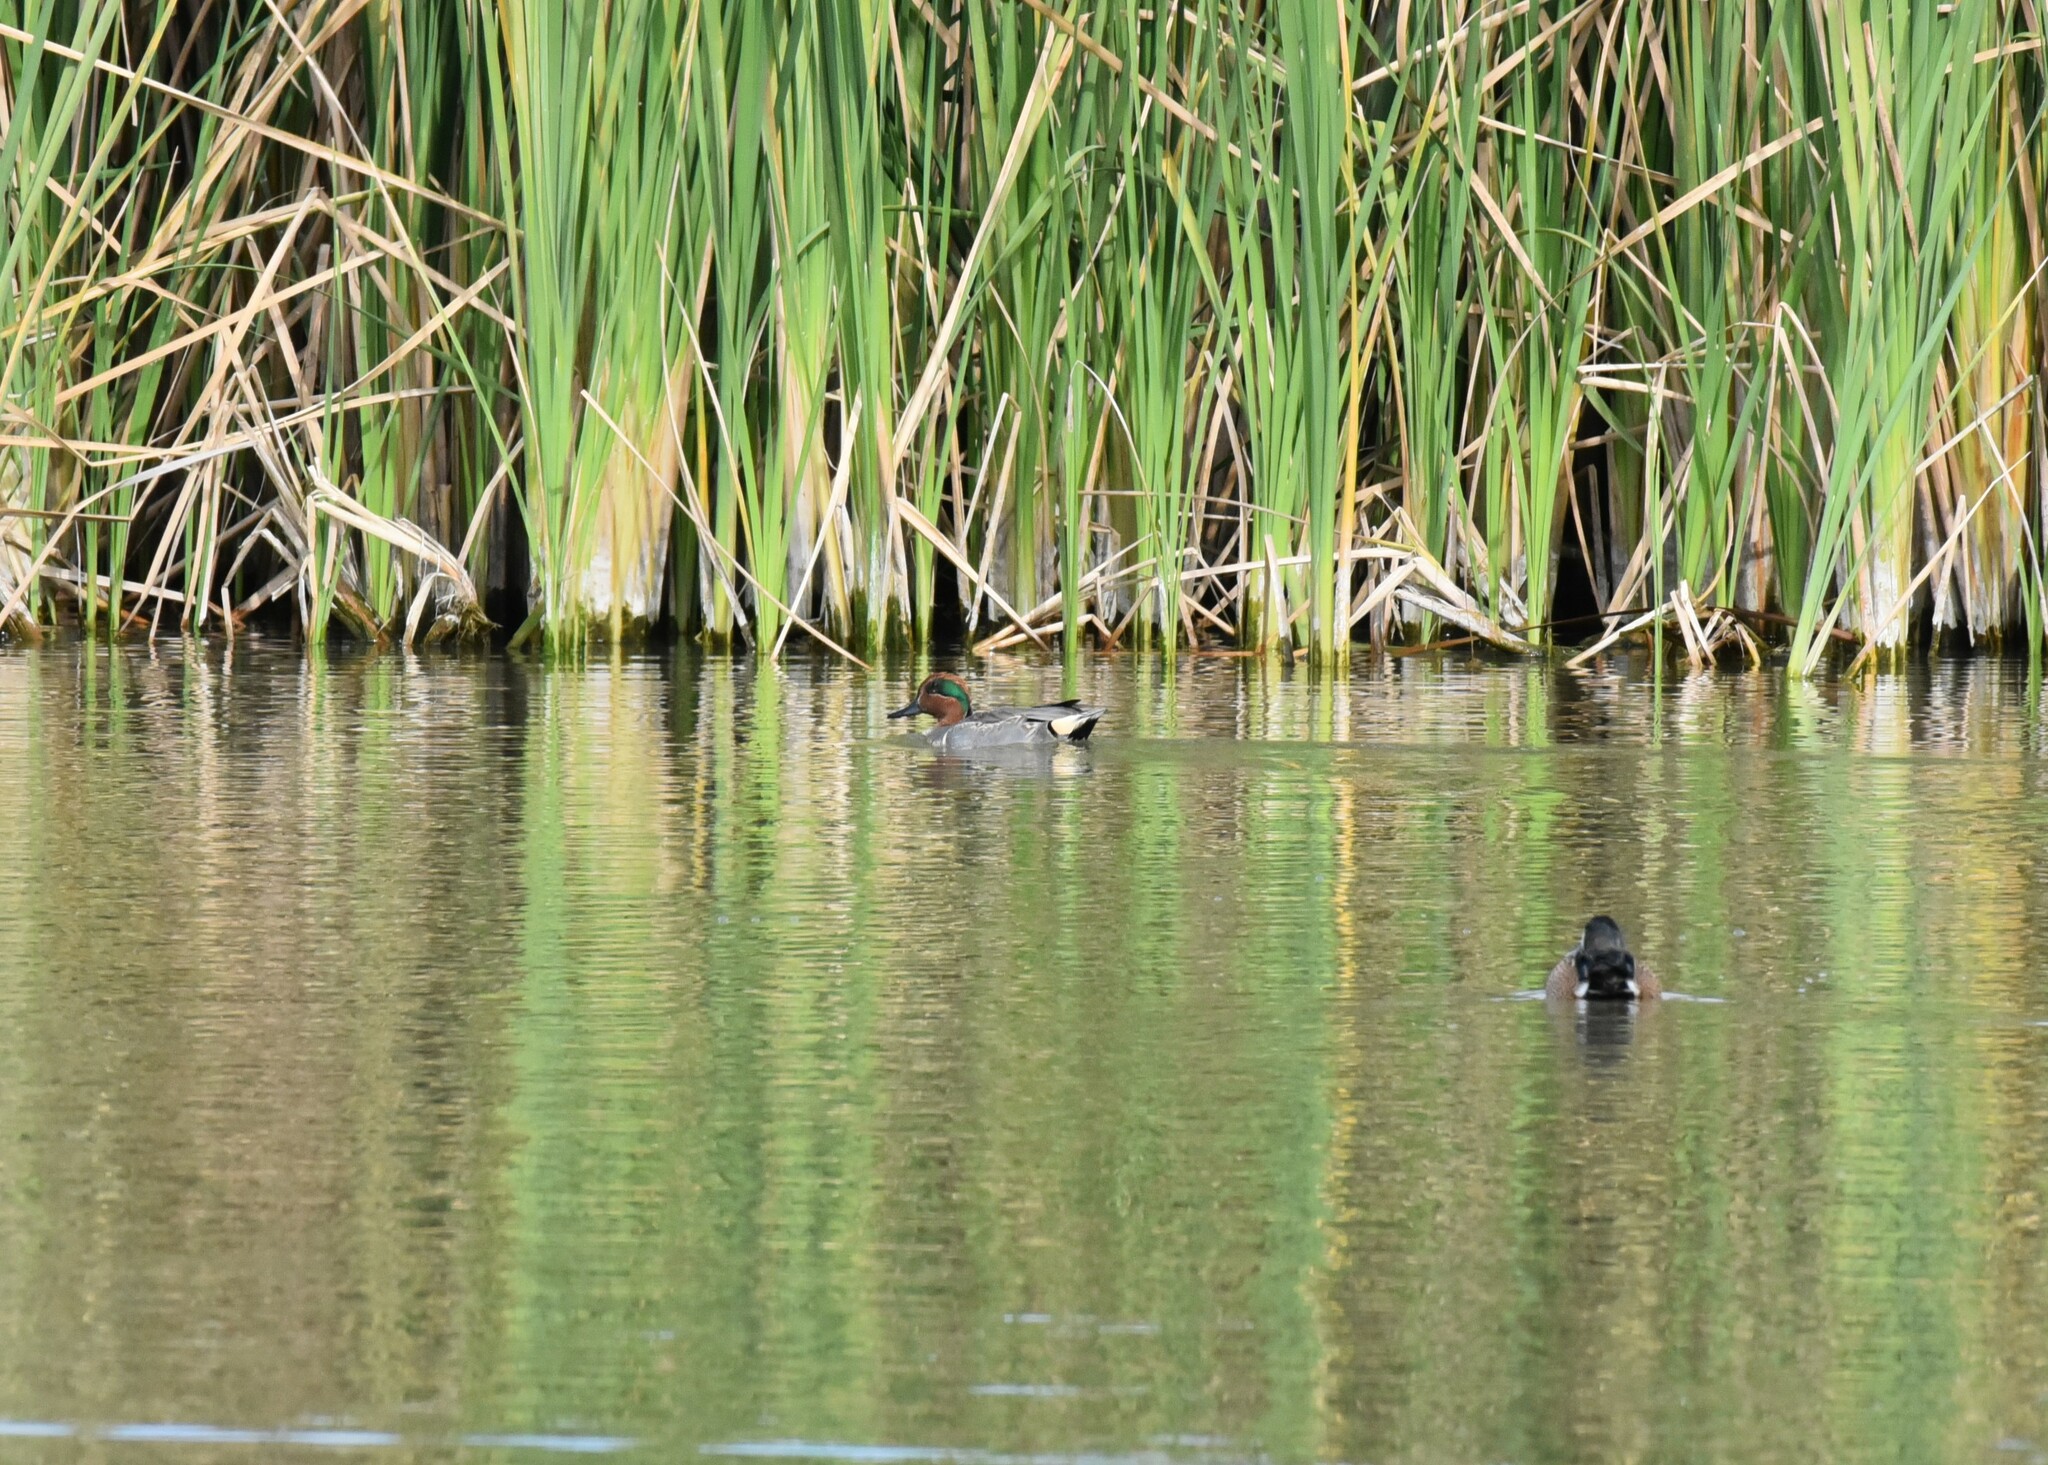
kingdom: Animalia
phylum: Chordata
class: Aves
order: Anseriformes
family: Anatidae
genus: Anas
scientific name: Anas crecca
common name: Eurasian teal
